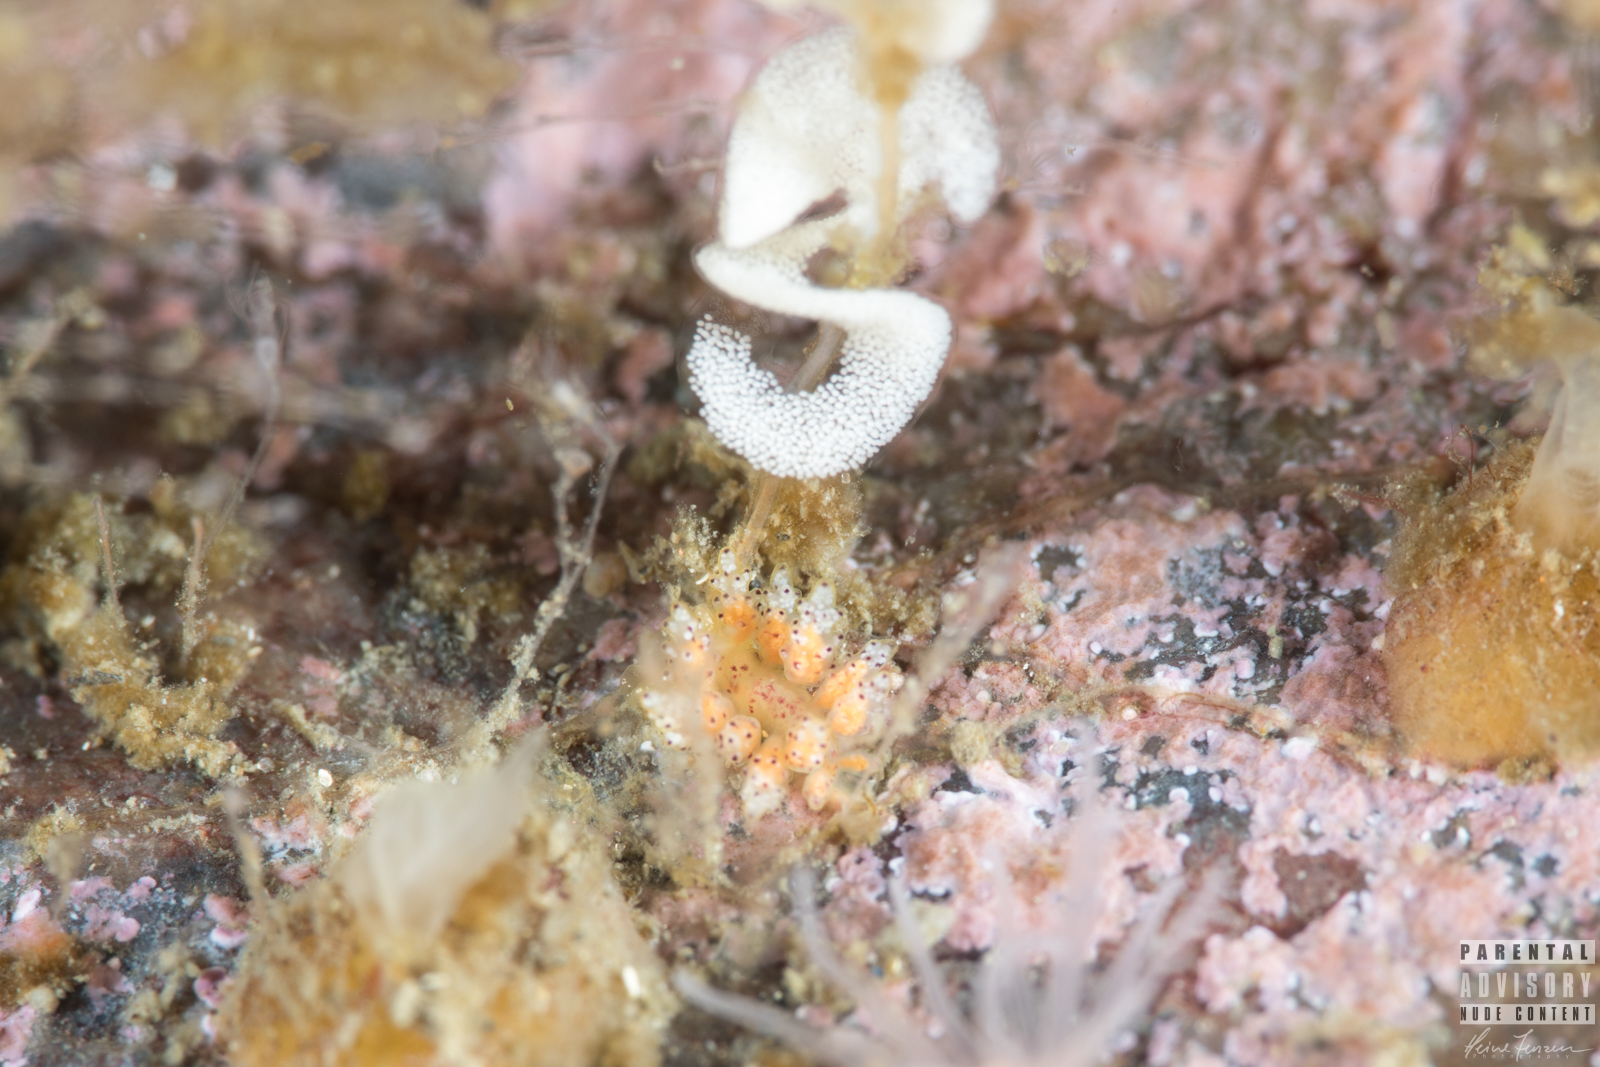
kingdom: Animalia
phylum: Mollusca
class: Gastropoda
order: Nudibranchia
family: Dotidae
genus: Doto
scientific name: Doto dunnei
